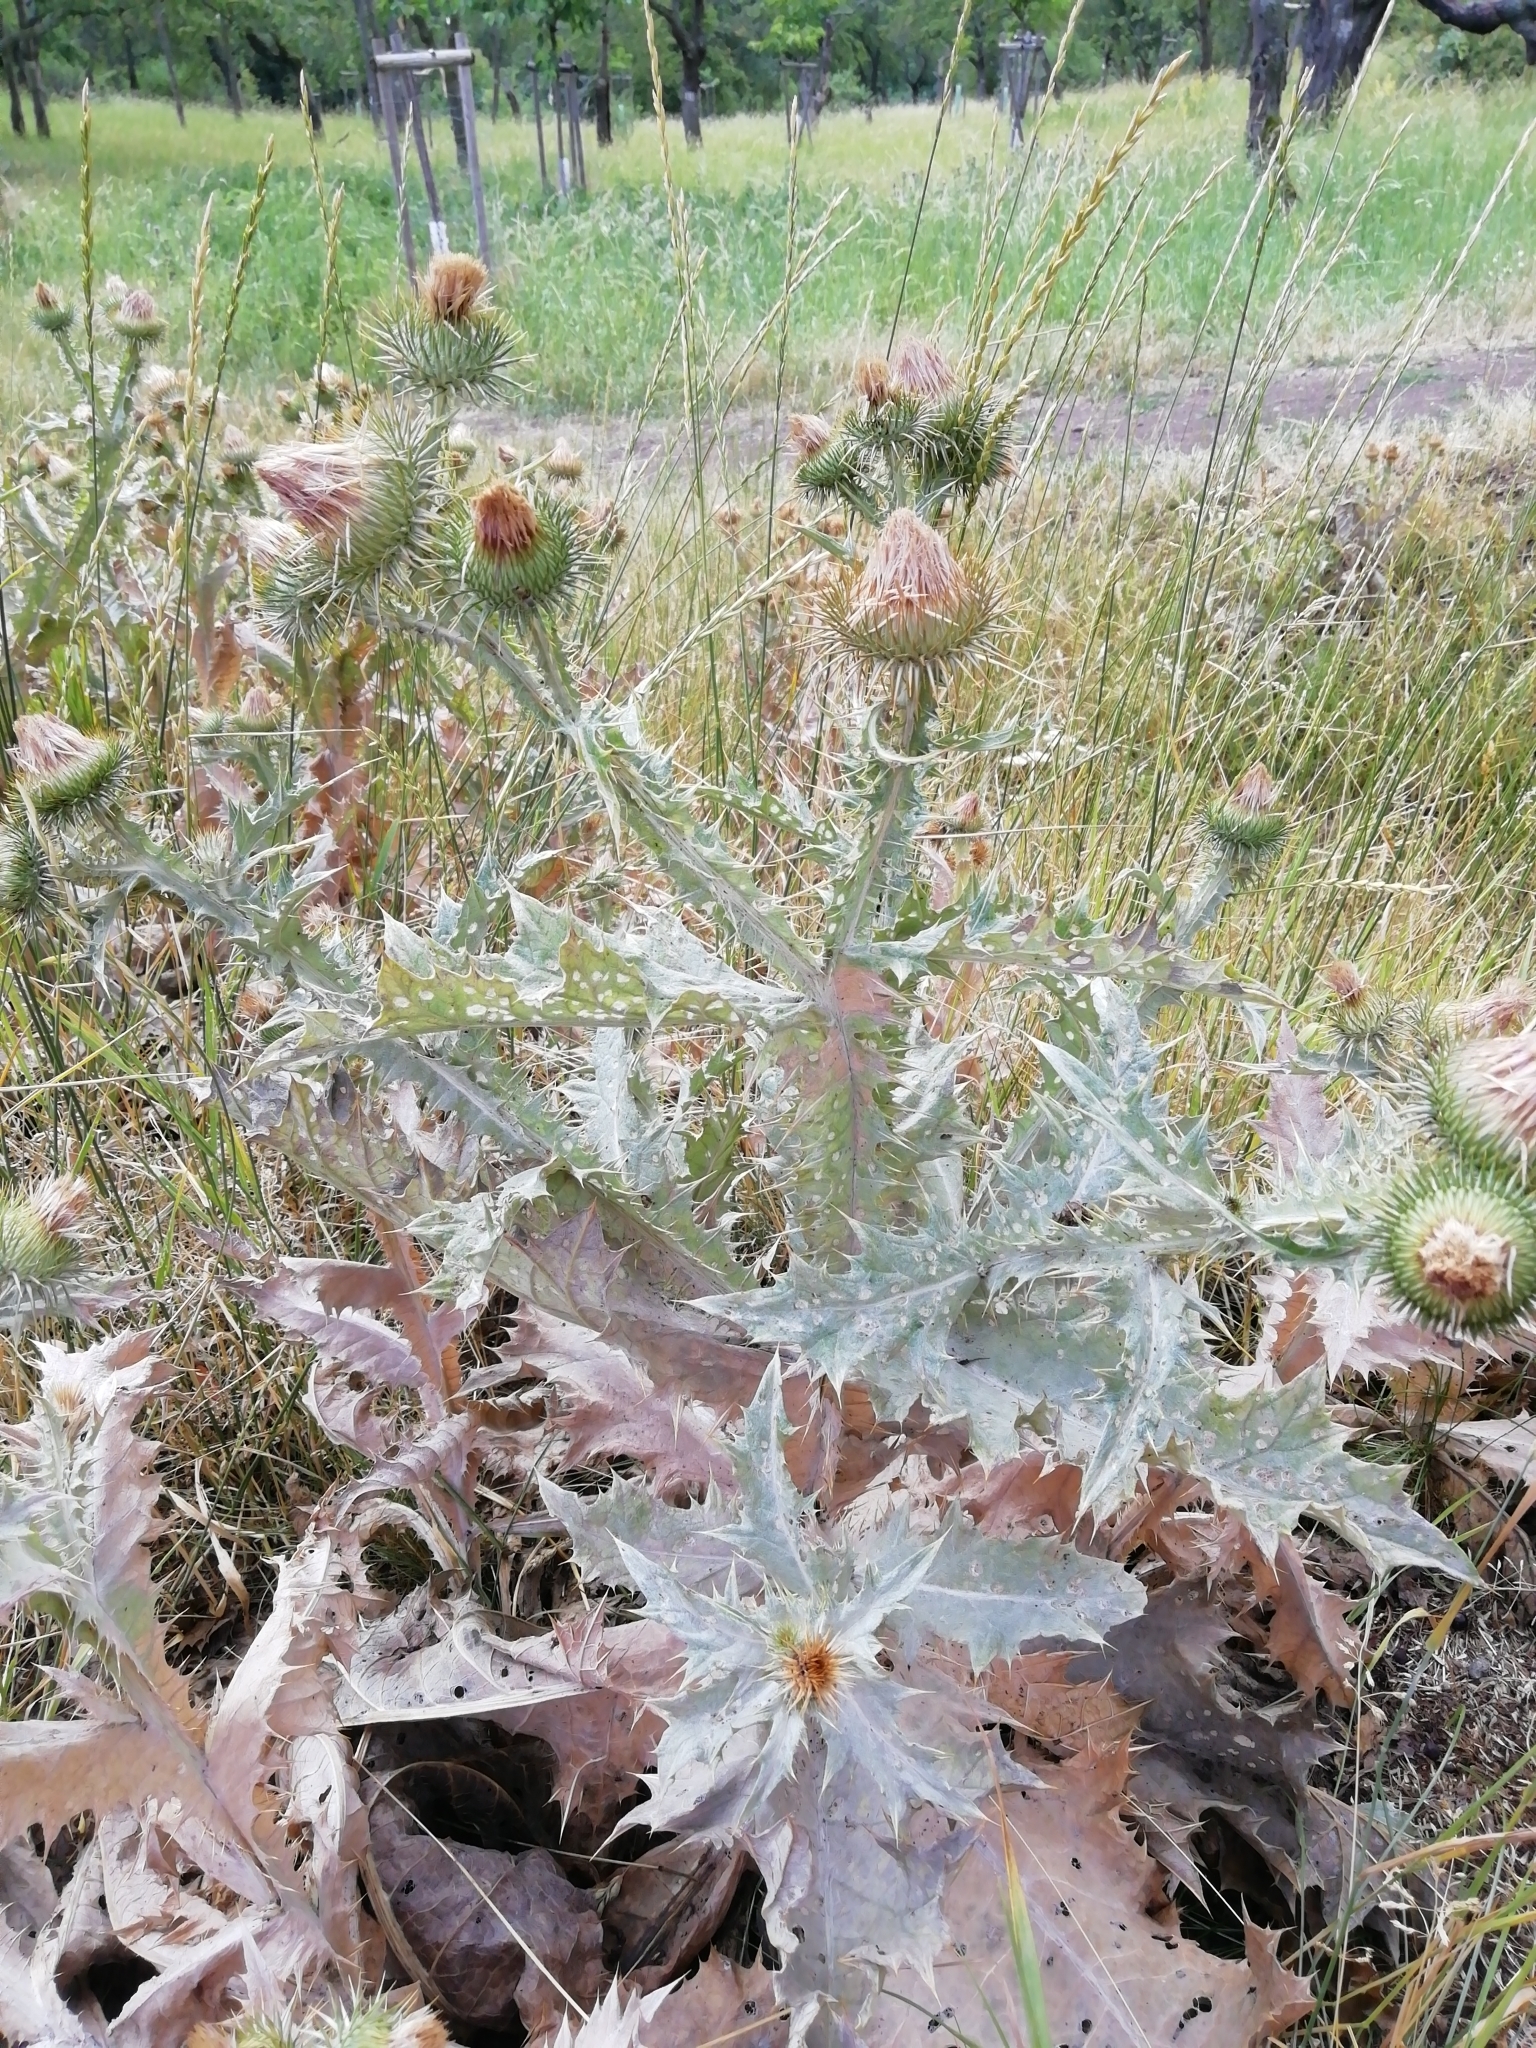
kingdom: Plantae
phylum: Tracheophyta
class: Magnoliopsida
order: Asterales
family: Asteraceae
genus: Onopordum
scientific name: Onopordum acanthium
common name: Scotch thistle
